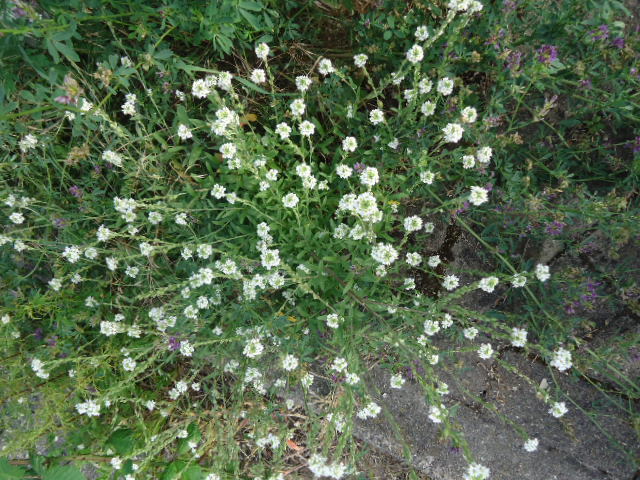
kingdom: Plantae
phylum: Tracheophyta
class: Magnoliopsida
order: Brassicales
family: Brassicaceae
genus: Berteroa
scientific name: Berteroa incana
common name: Hoary alison
